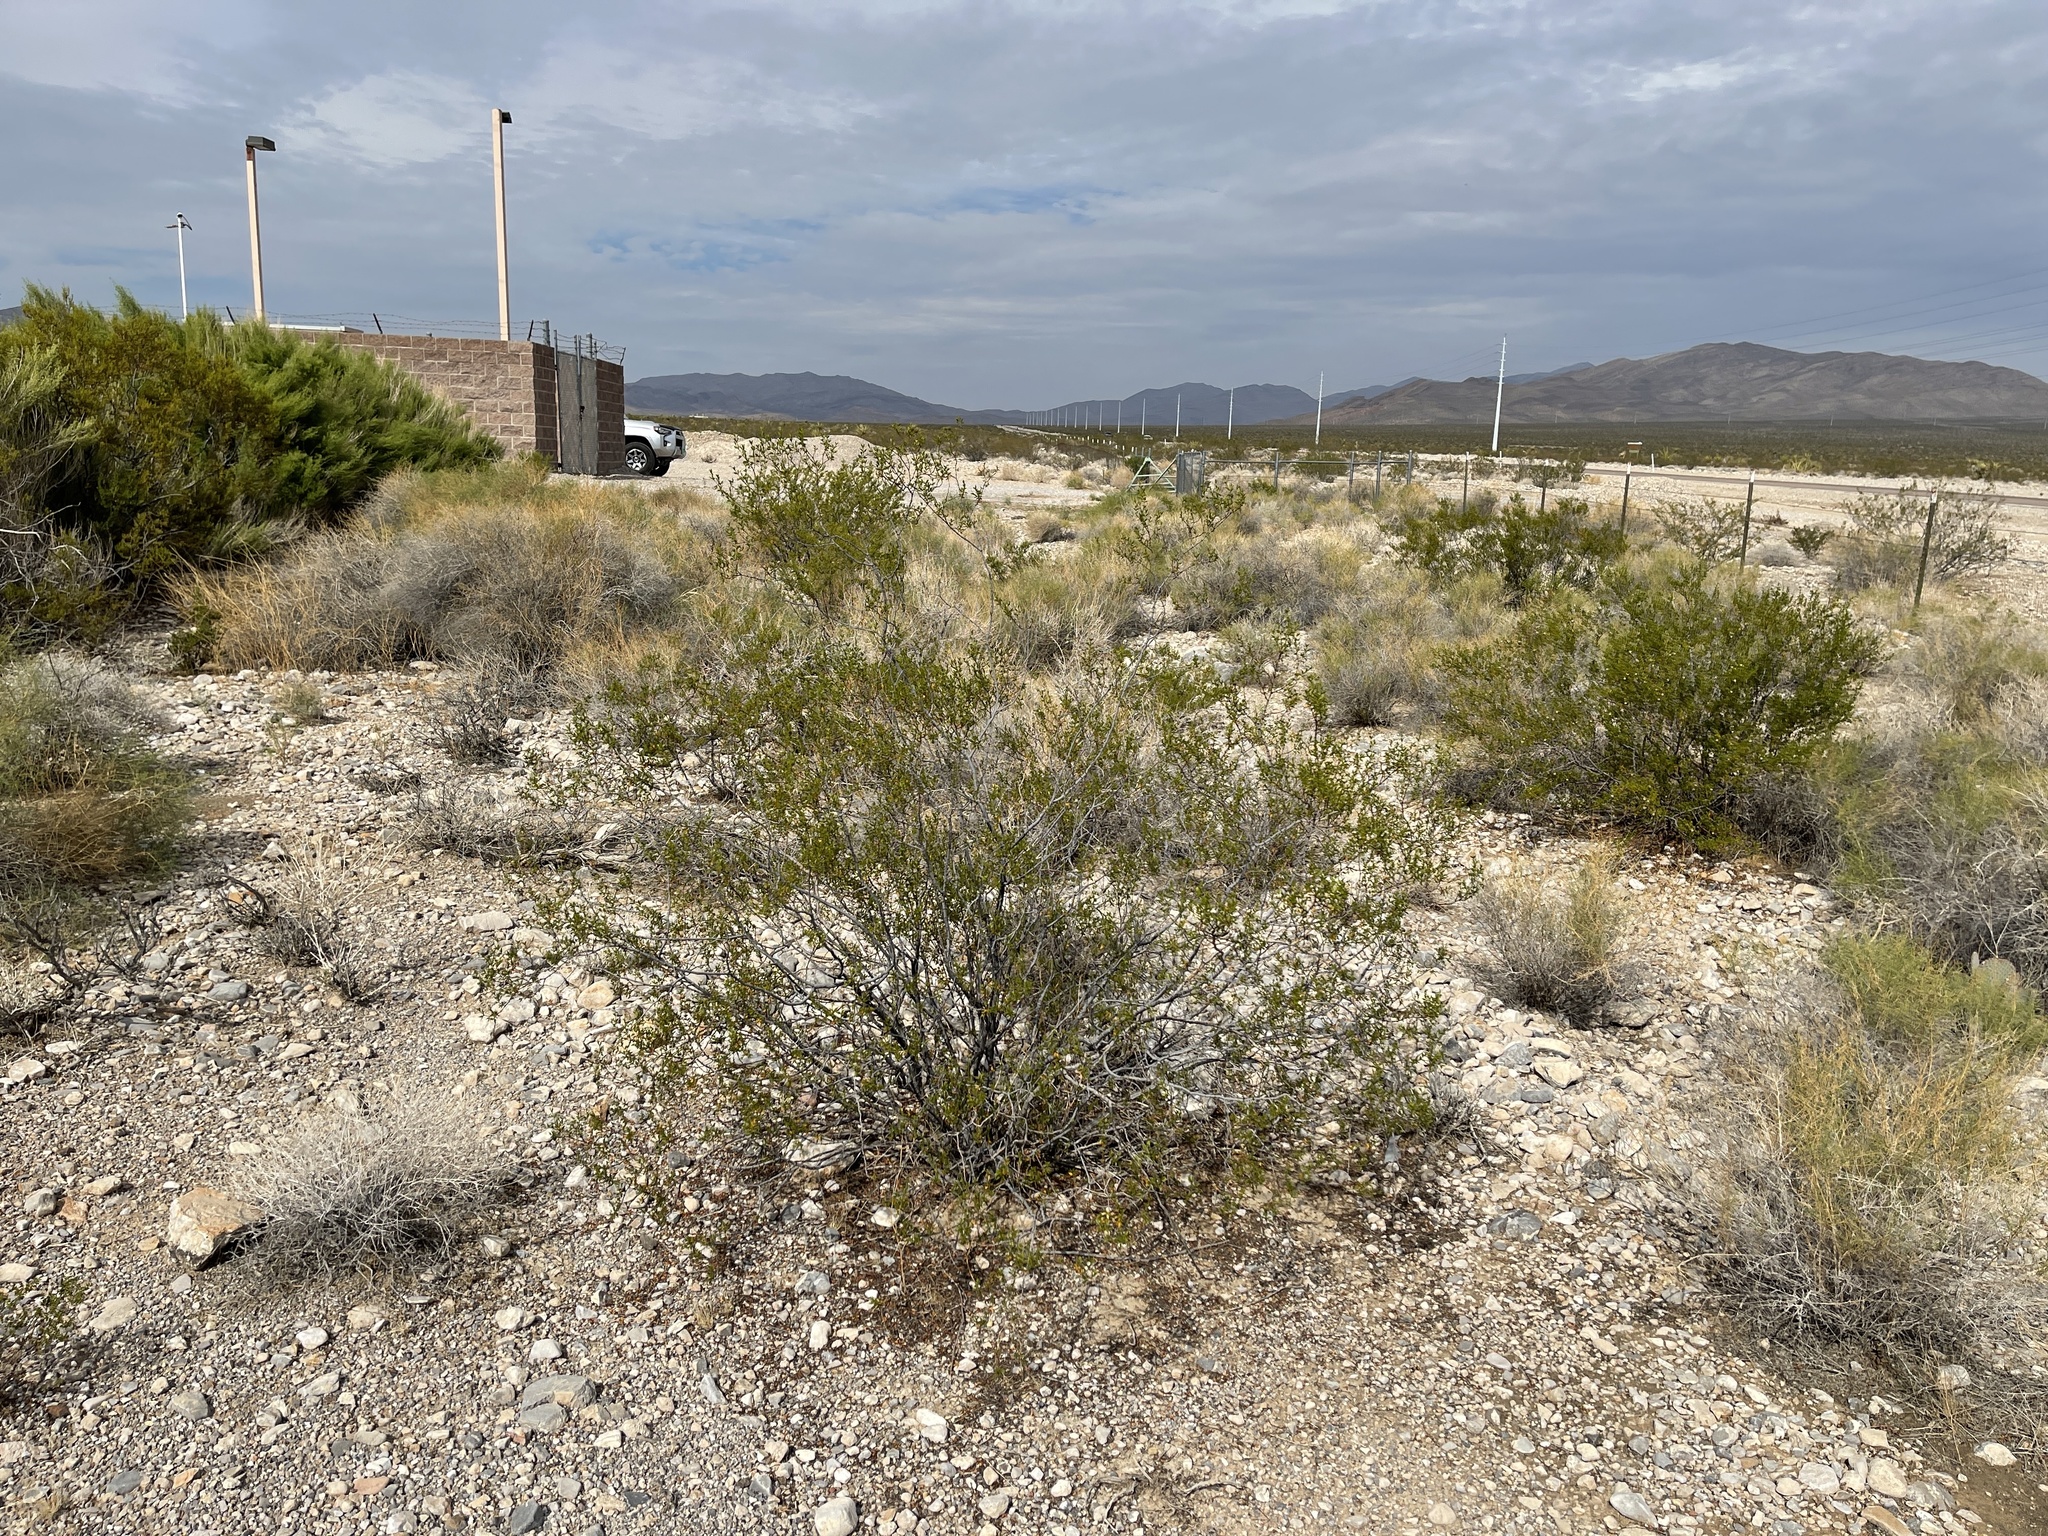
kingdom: Plantae
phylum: Tracheophyta
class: Magnoliopsida
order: Zygophyllales
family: Zygophyllaceae
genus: Larrea
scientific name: Larrea tridentata
